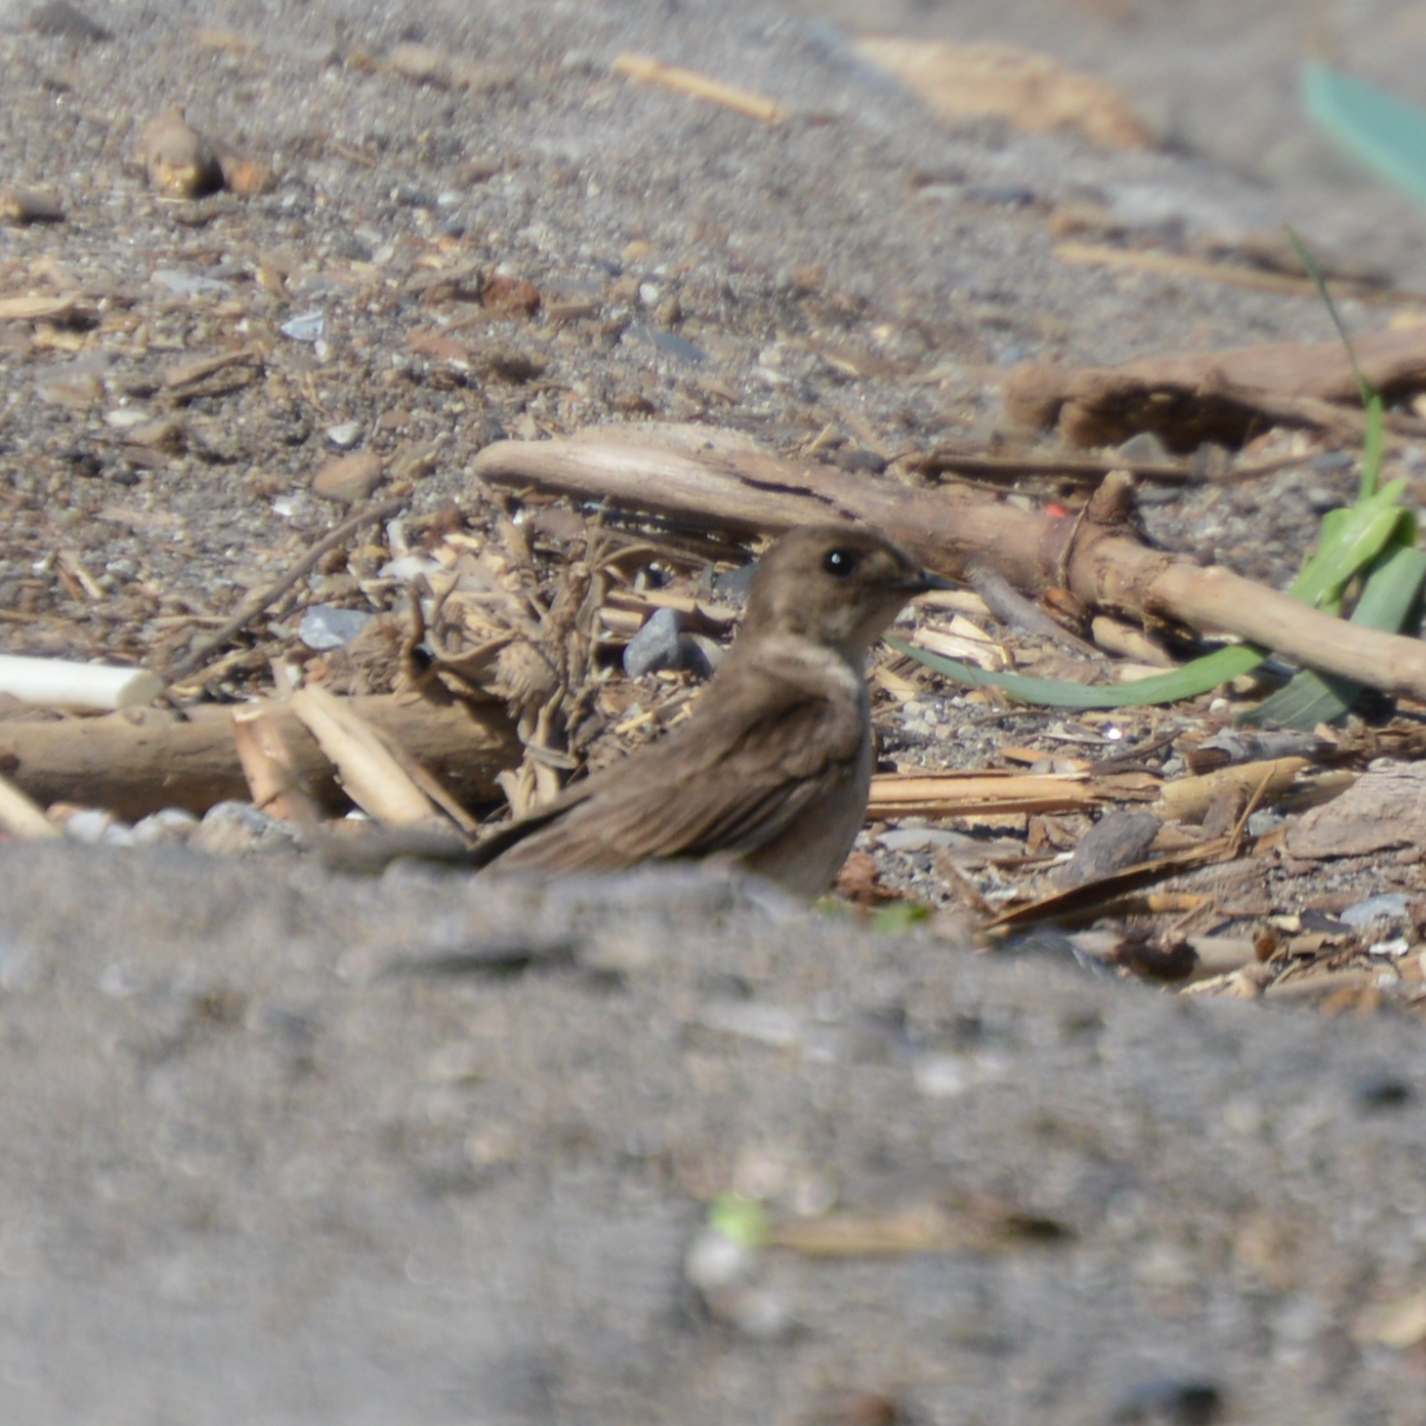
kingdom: Animalia
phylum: Chordata
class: Aves
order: Passeriformes
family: Hirundinidae
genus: Stelgidopteryx
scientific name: Stelgidopteryx serripennis
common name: Northern rough-winged swallow
